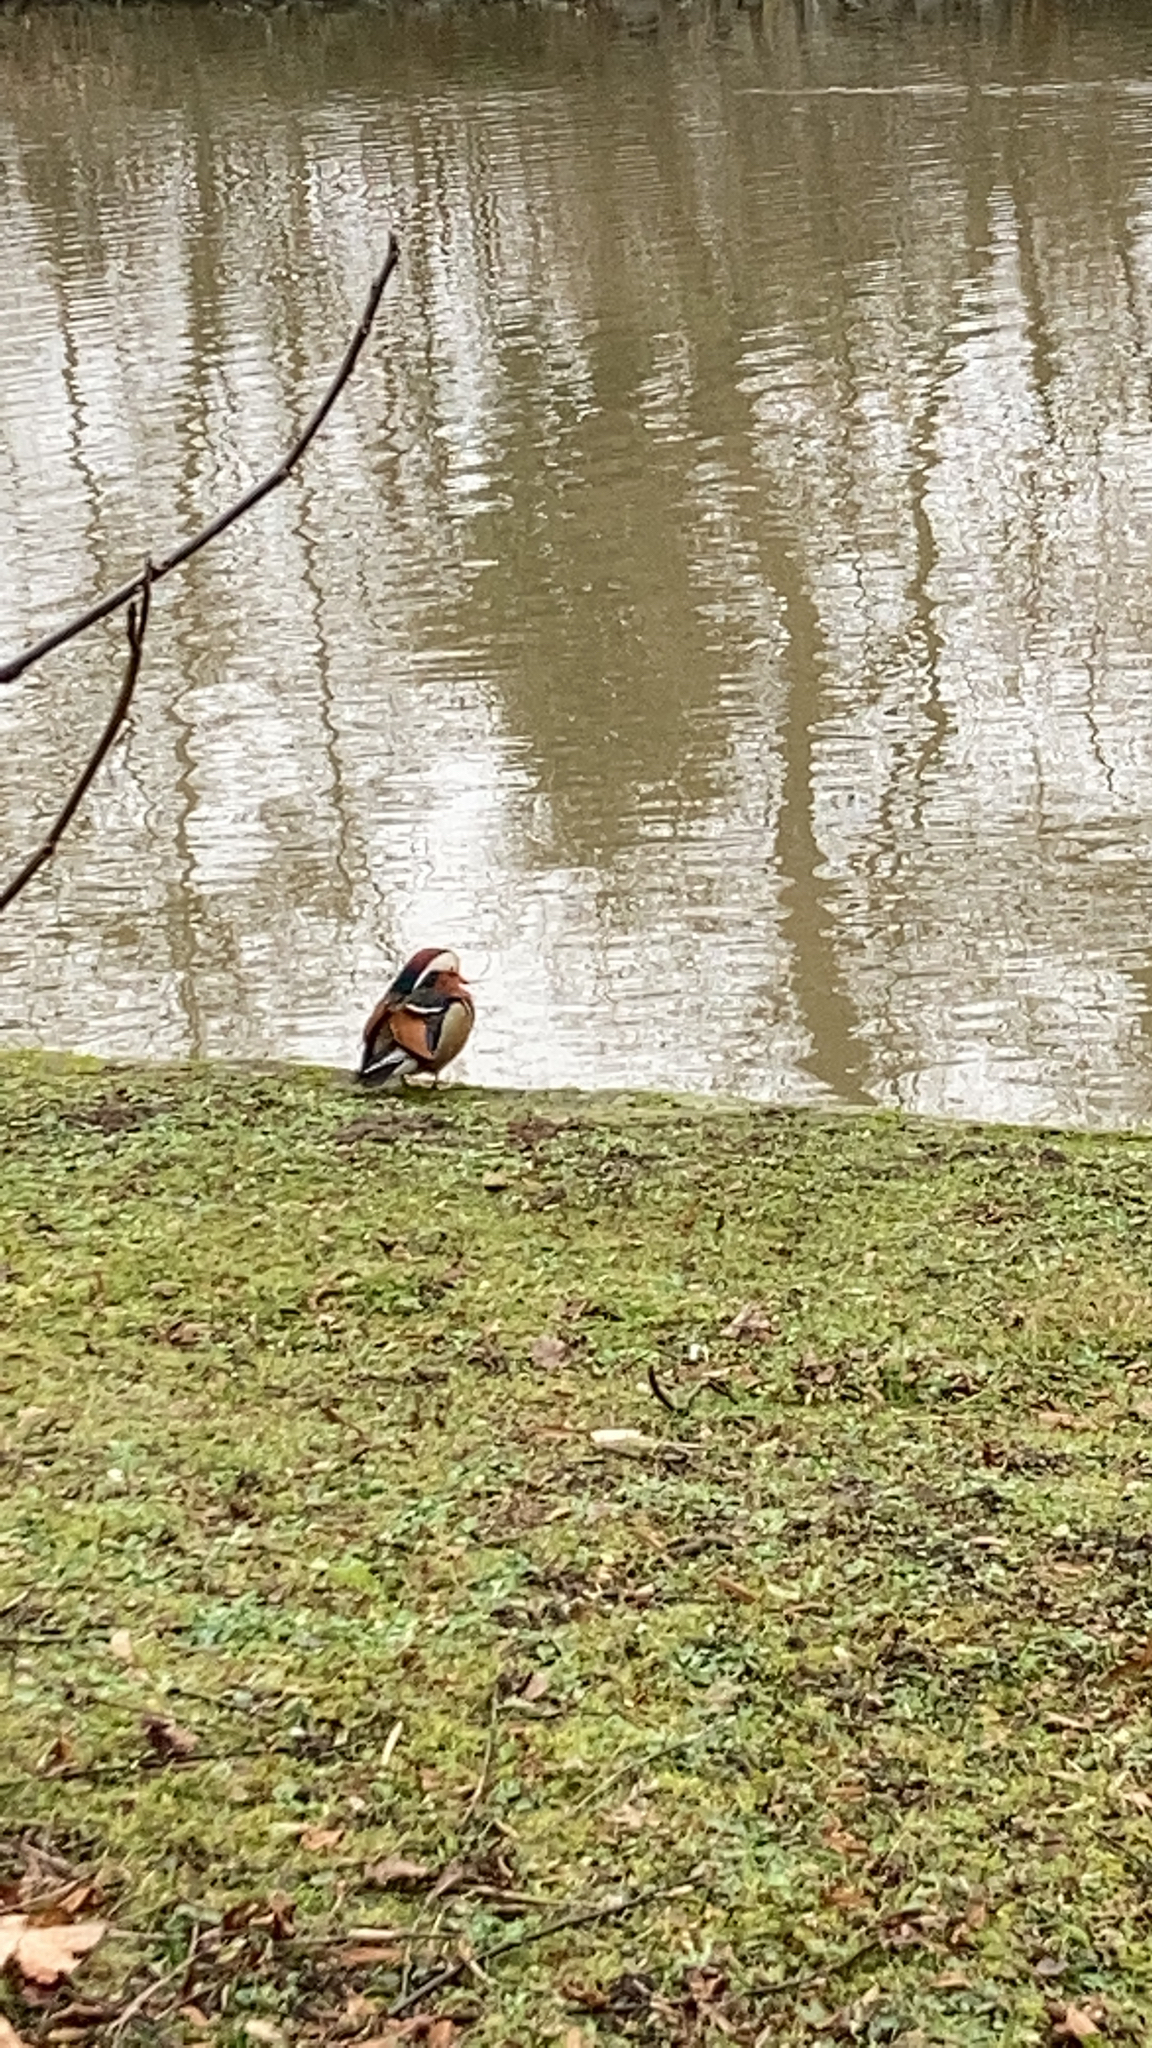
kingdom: Animalia
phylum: Chordata
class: Aves
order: Anseriformes
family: Anatidae
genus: Aix
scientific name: Aix galericulata
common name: Mandarin duck
